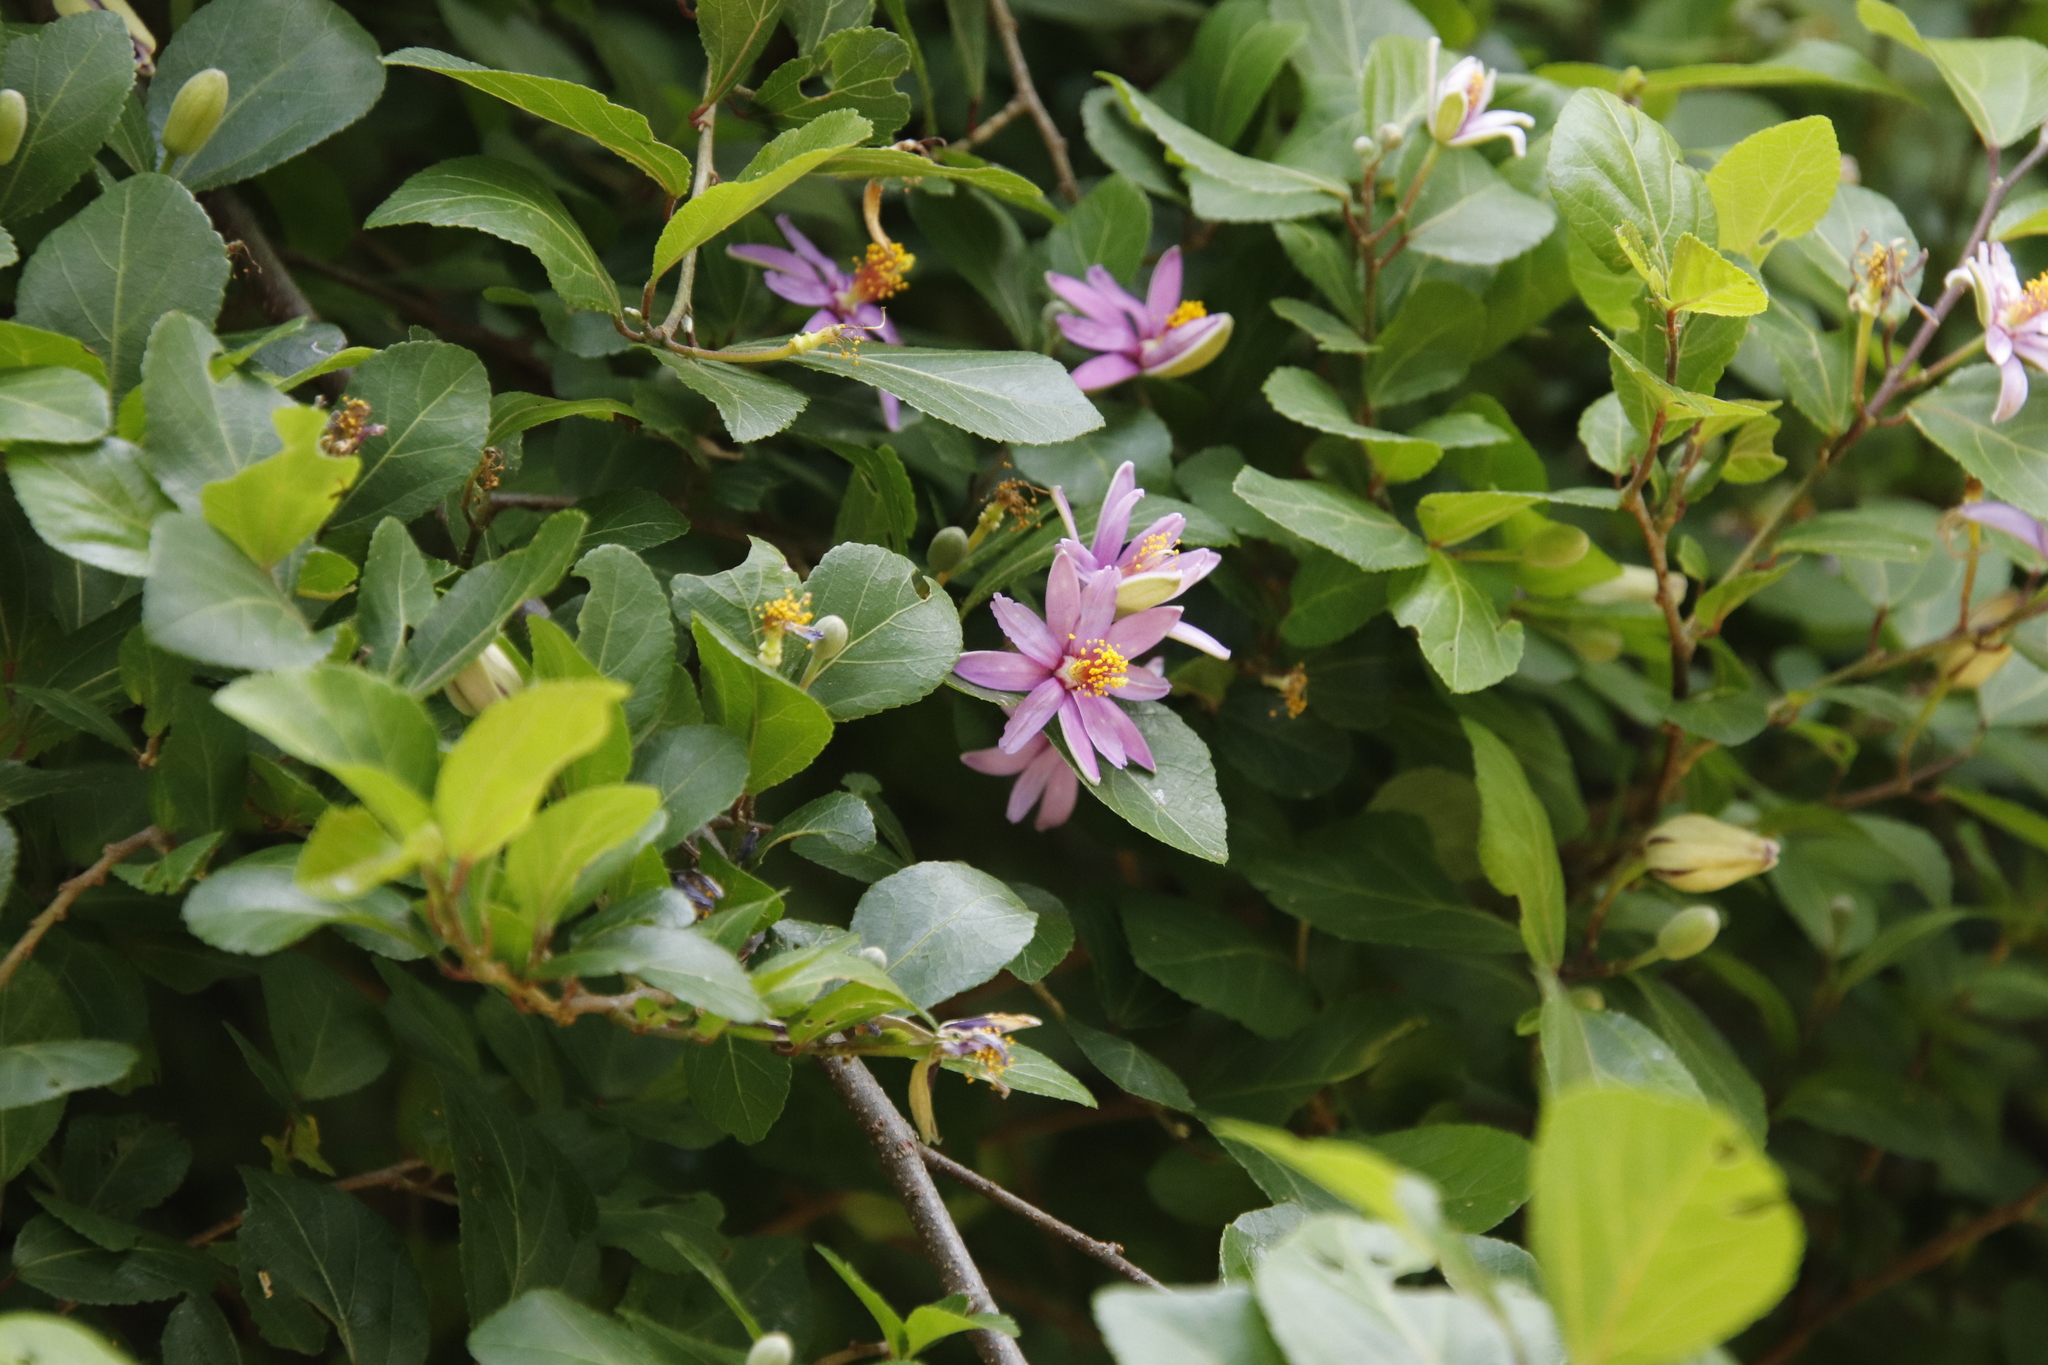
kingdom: Plantae
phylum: Tracheophyta
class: Magnoliopsida
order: Malvales
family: Malvaceae
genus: Grewia
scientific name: Grewia occidentalis
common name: Crossberry
